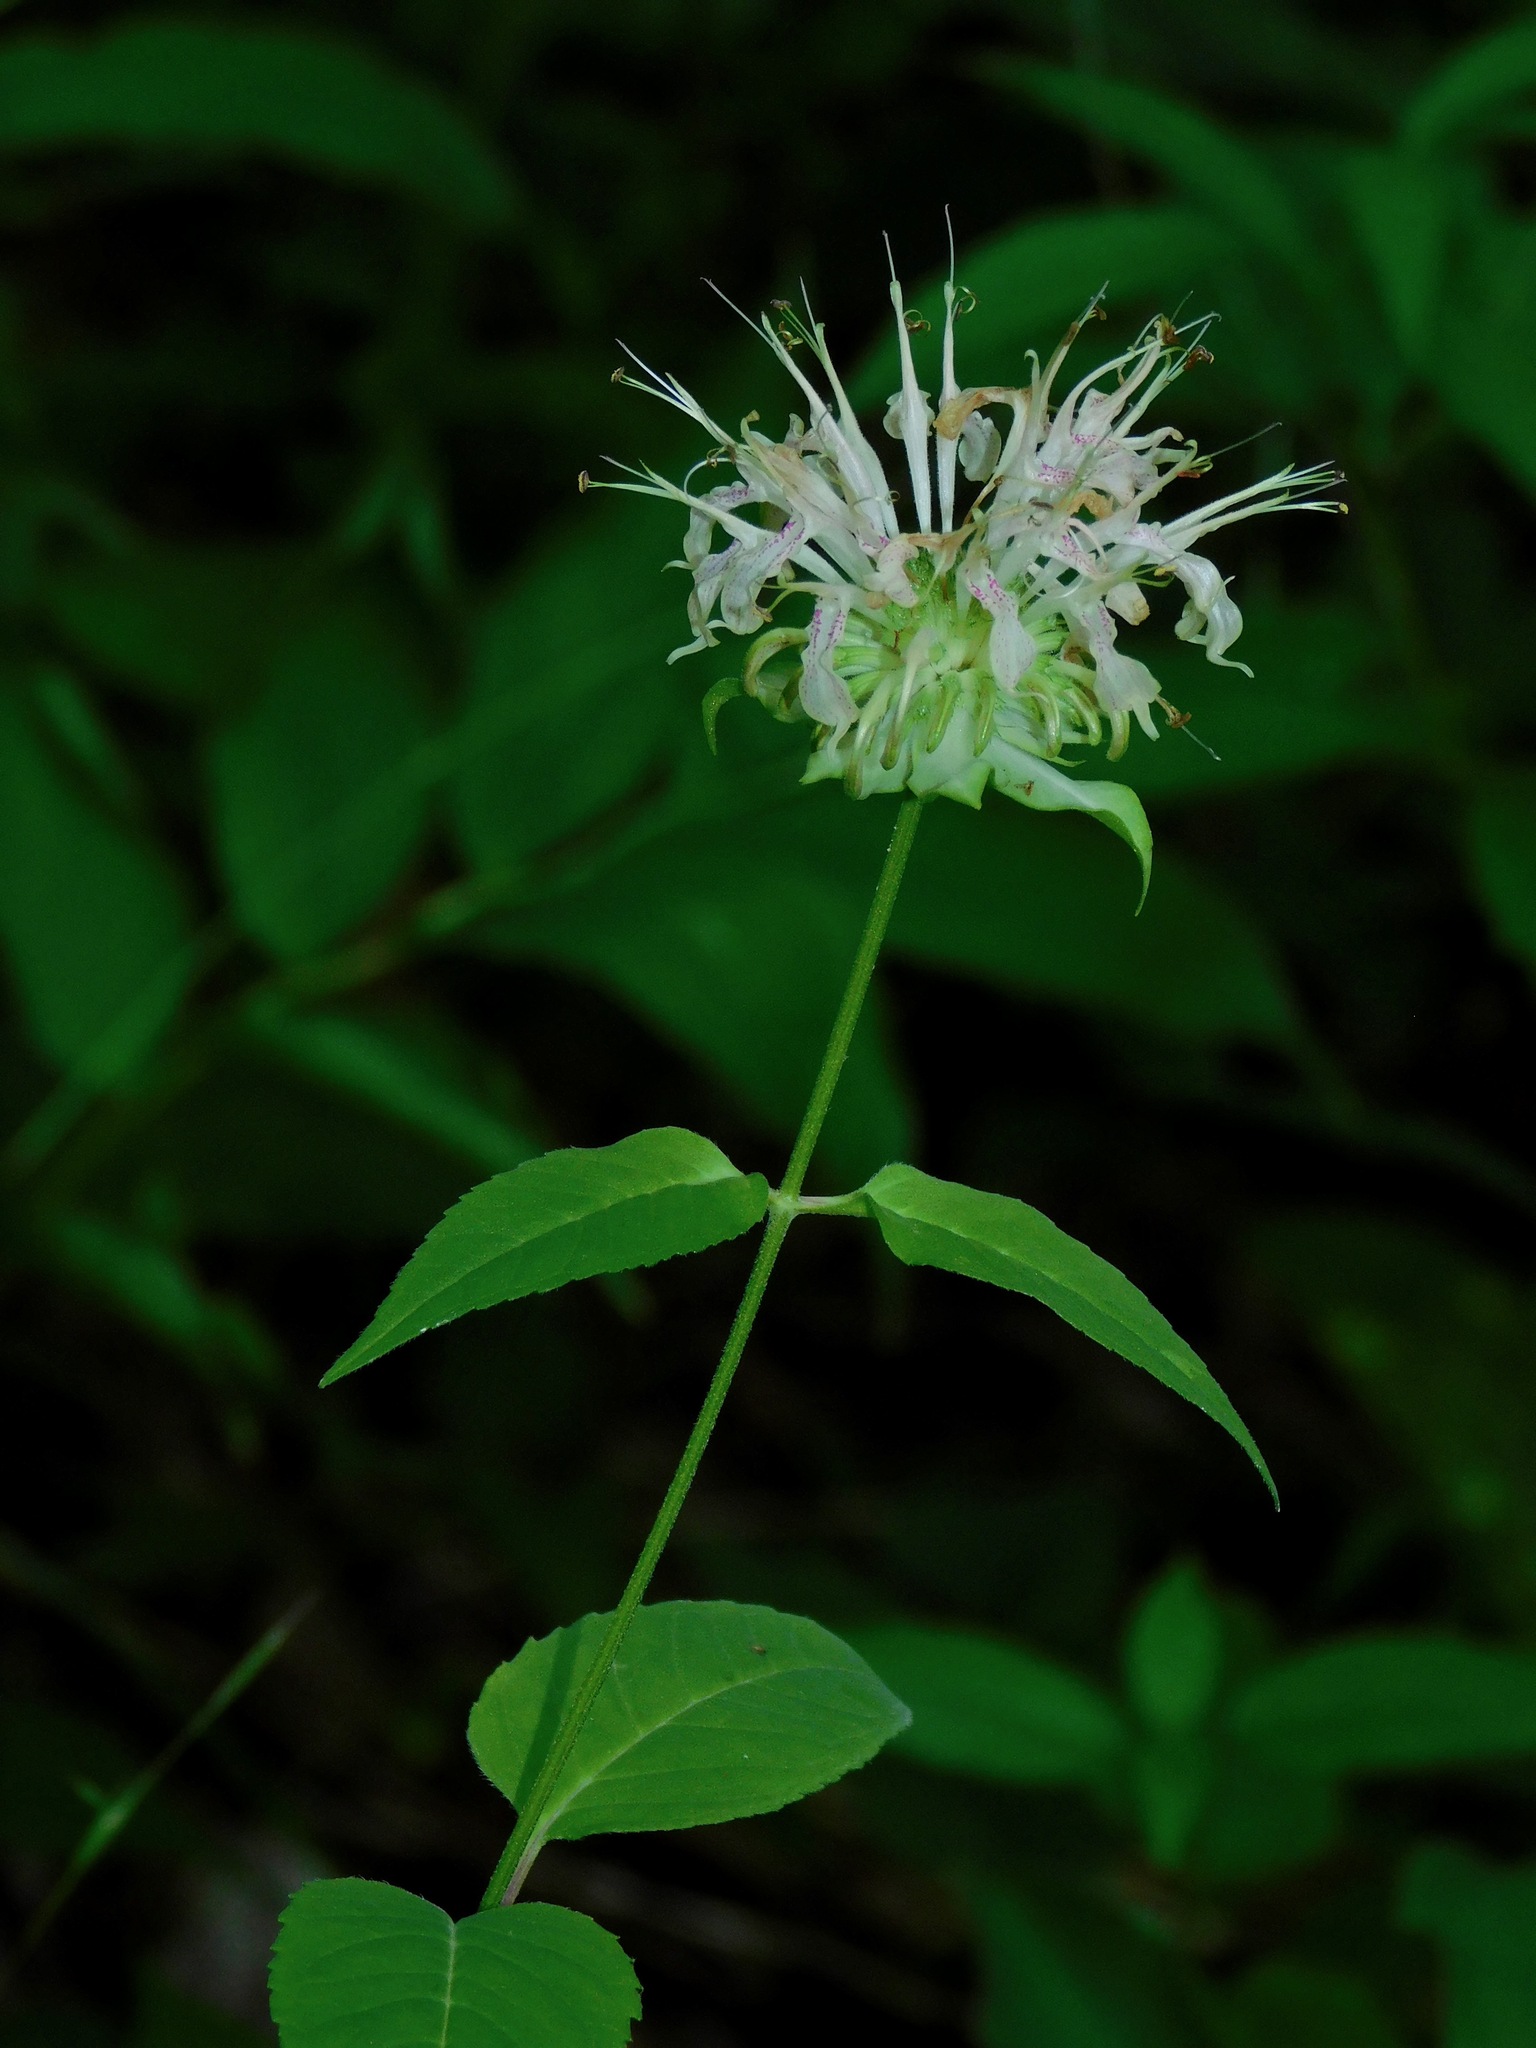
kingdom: Plantae
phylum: Tracheophyta
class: Magnoliopsida
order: Lamiales
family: Lamiaceae
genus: Monarda
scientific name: Monarda clinopodia
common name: Basil beebalm
